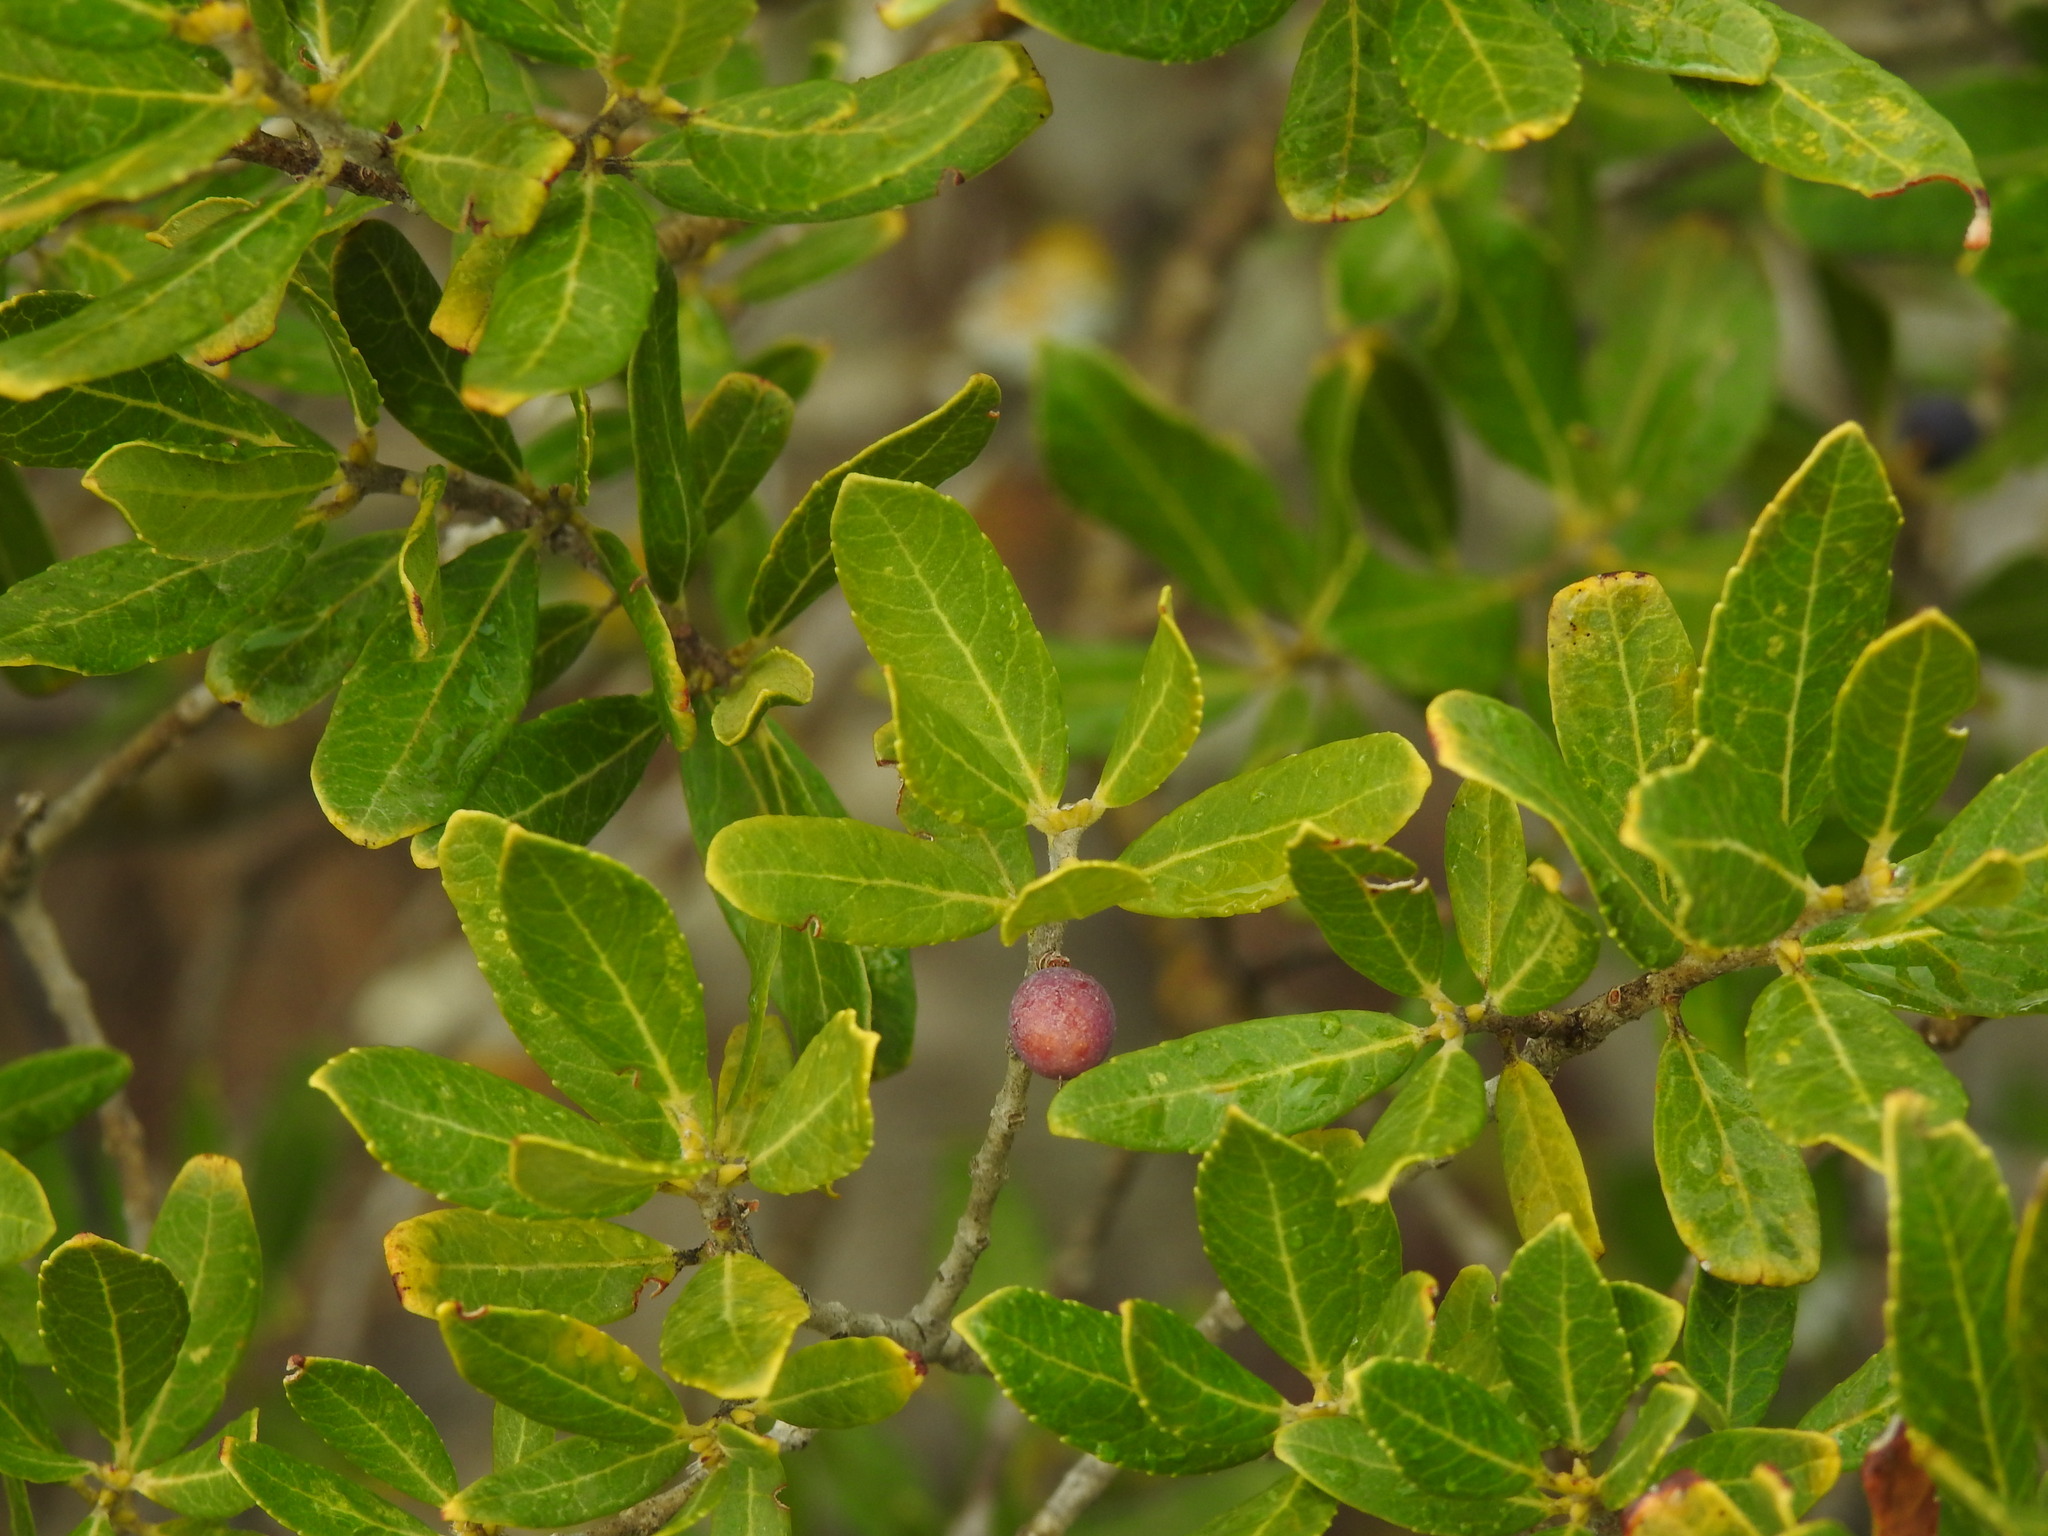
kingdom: Plantae
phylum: Tracheophyta
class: Magnoliopsida
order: Lamiales
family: Oleaceae
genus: Phillyrea
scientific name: Phillyrea latifolia
